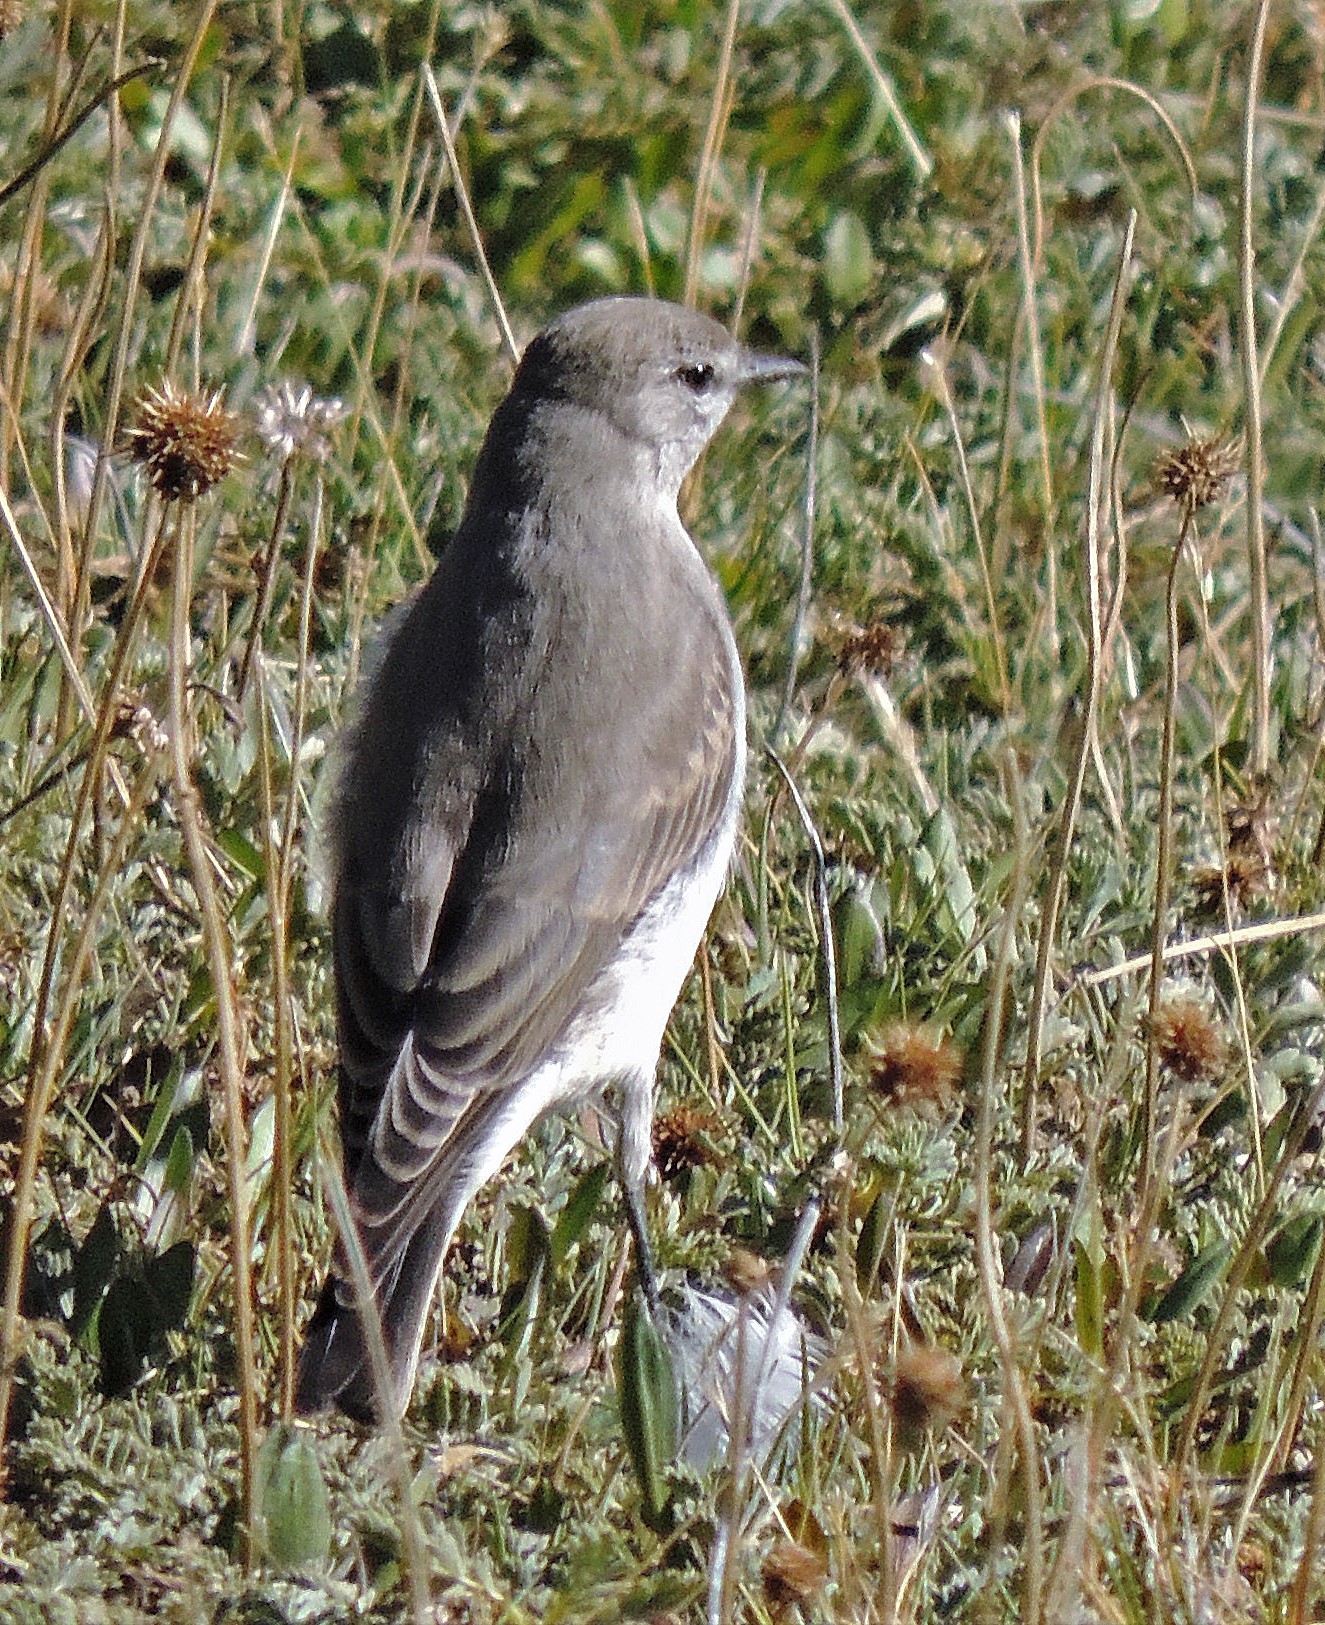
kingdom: Animalia
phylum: Chordata
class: Aves
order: Passeriformes
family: Tyrannidae
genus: Muscisaxicola
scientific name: Muscisaxicola cinereus
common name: Cinereous ground tyrant
